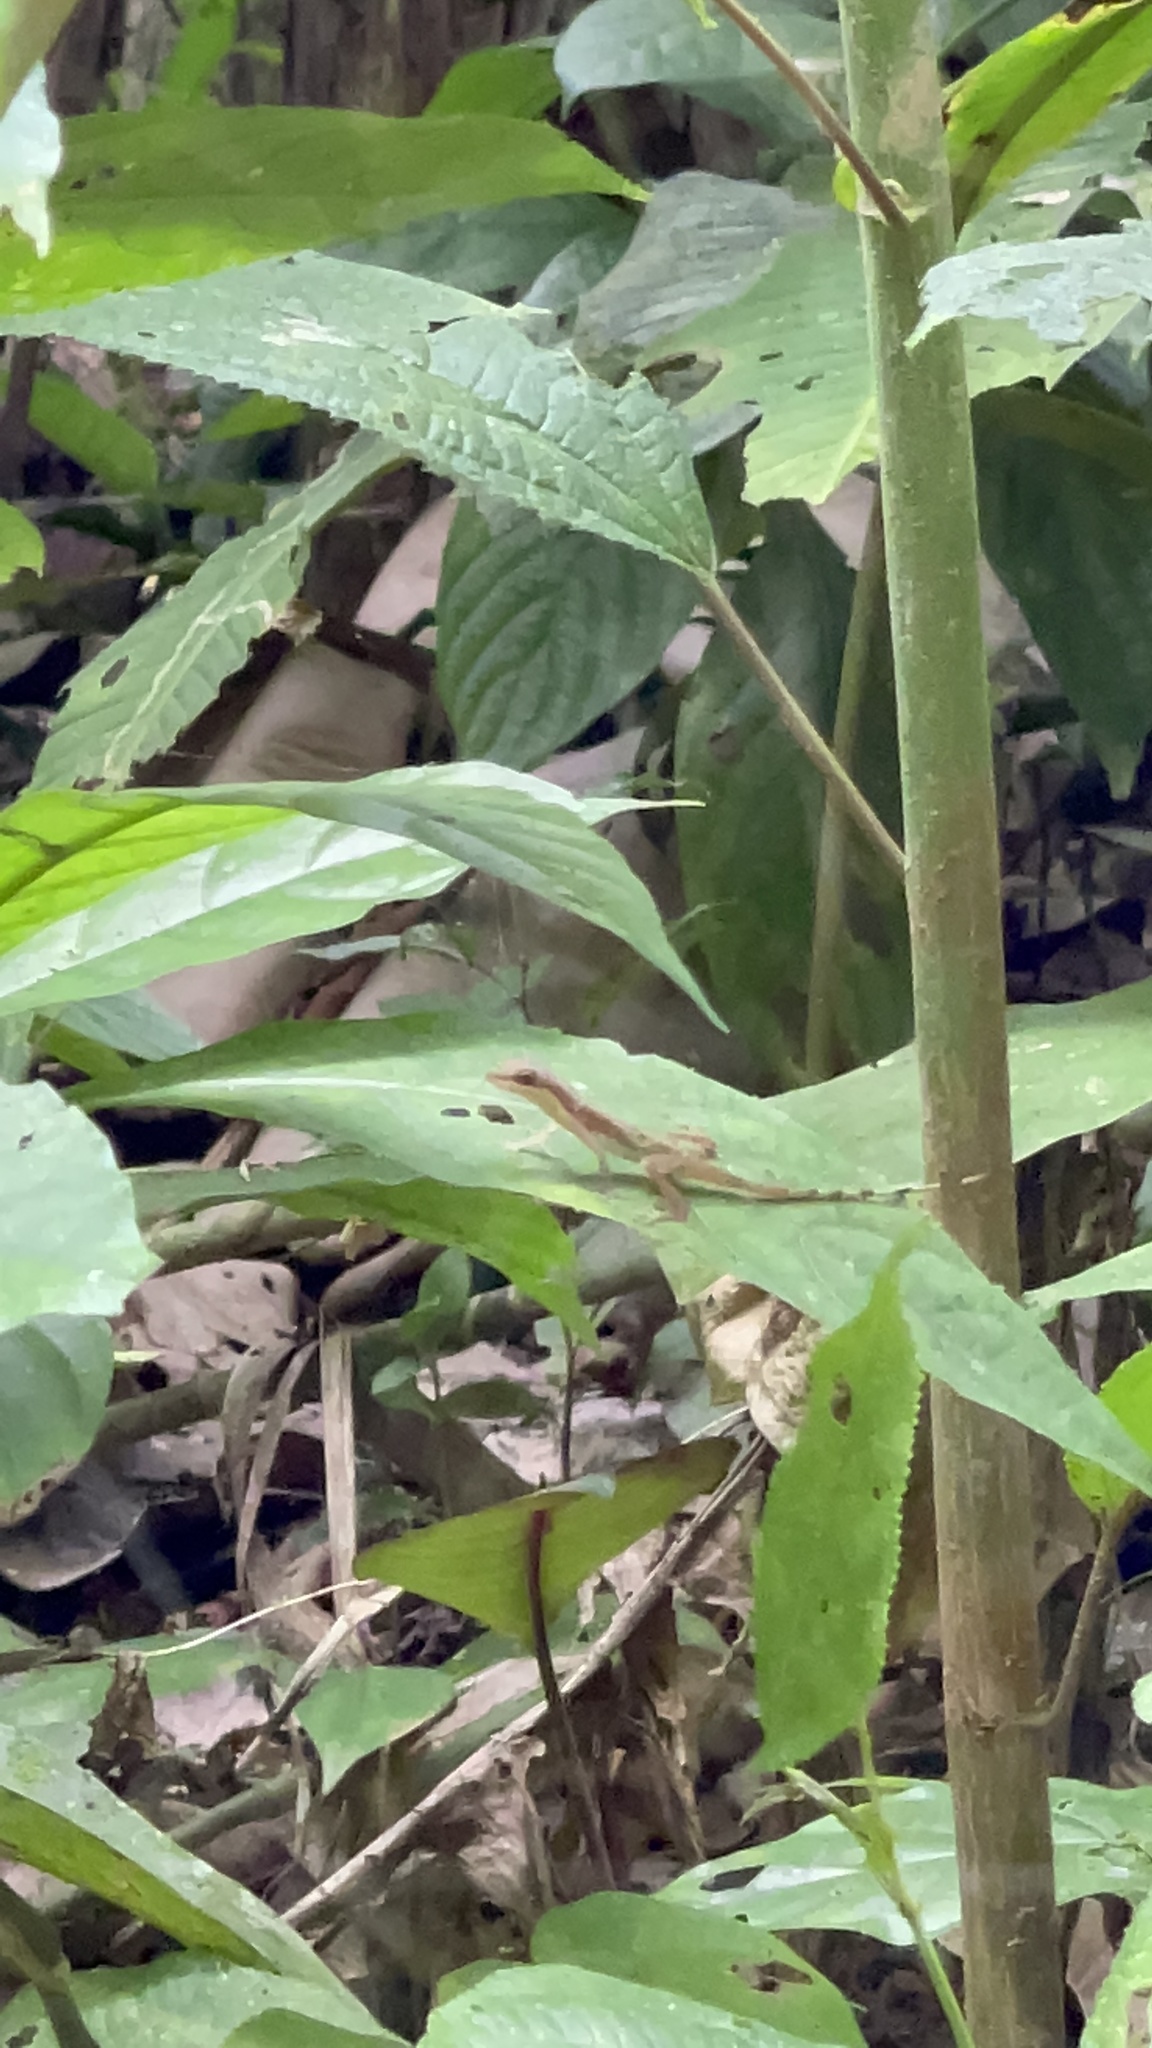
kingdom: Animalia
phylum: Chordata
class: Squamata
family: Dactyloidae
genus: Anolis
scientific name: Anolis limifrons
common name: Border anole
